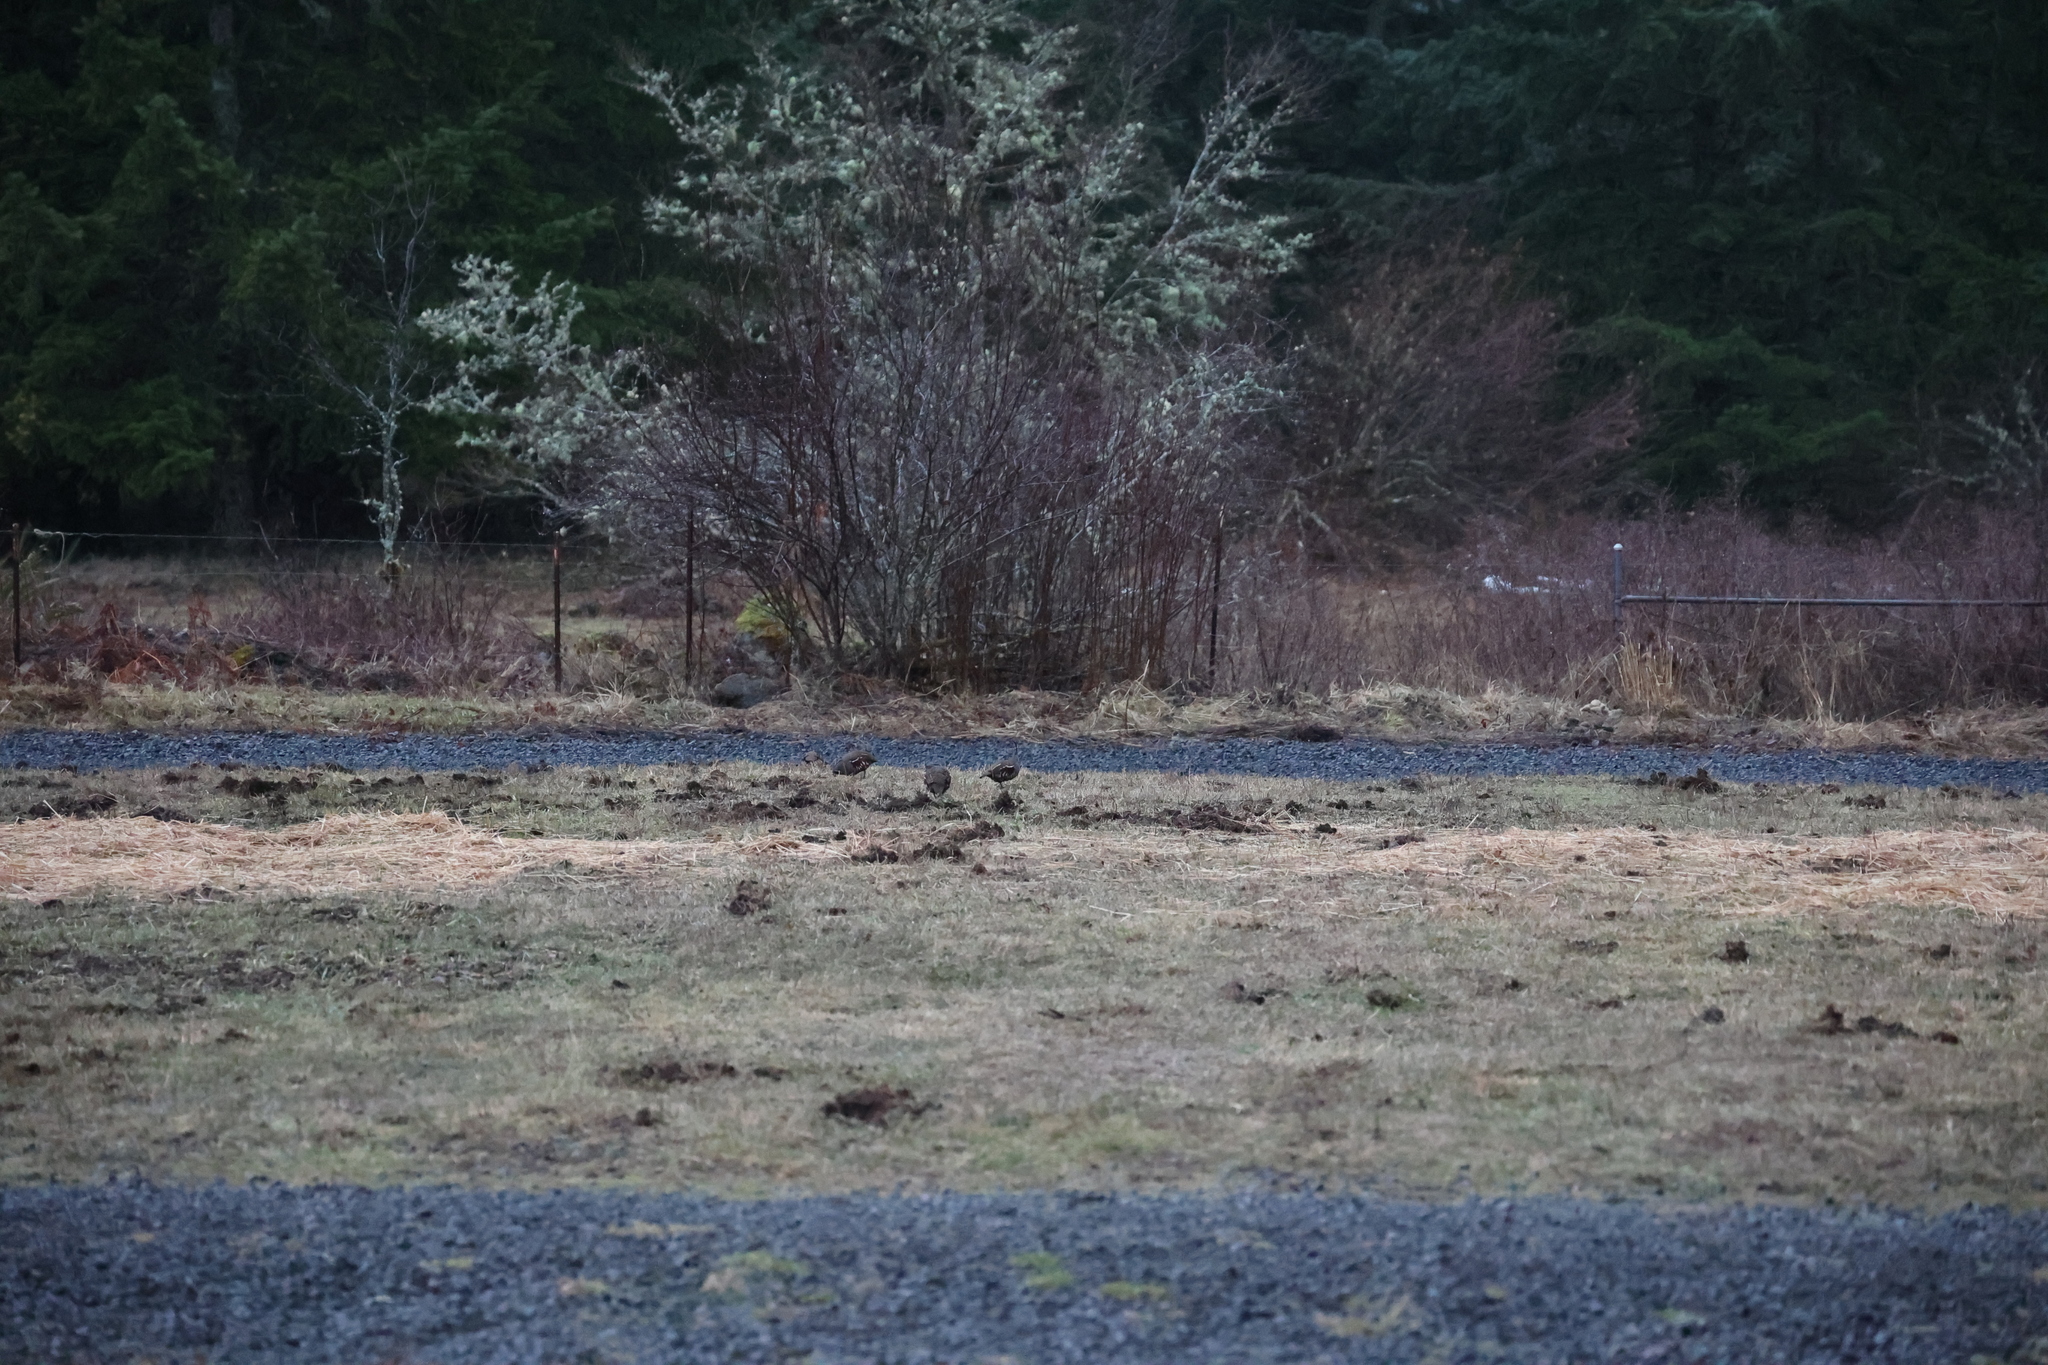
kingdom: Animalia
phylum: Chordata
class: Aves
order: Galliformes
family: Odontophoridae
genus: Oreortyx
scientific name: Oreortyx pictus
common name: Mountain quail
